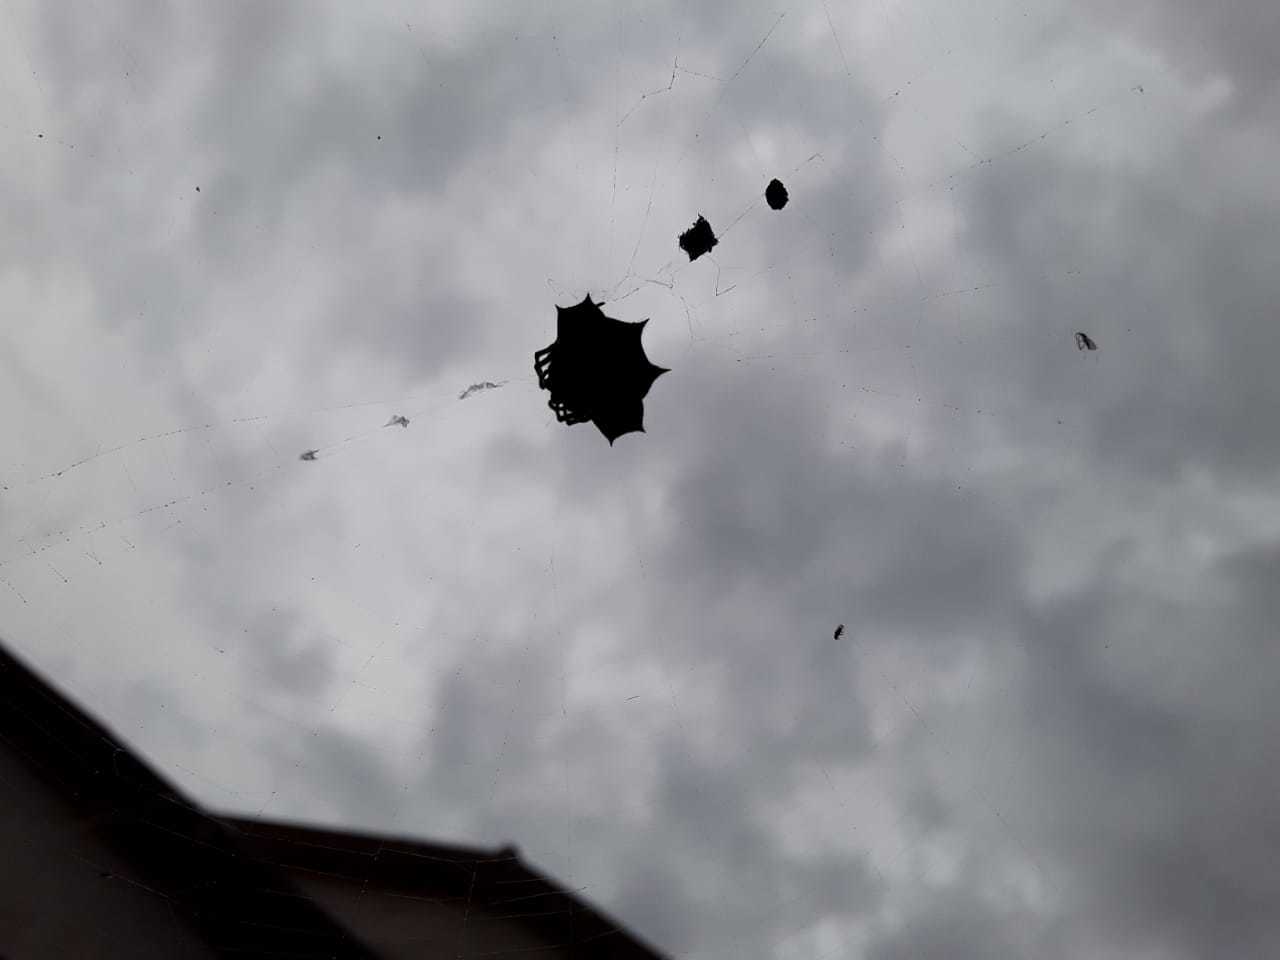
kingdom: Animalia
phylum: Arthropoda
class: Arachnida
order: Araneae
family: Araneidae
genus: Gasteracantha
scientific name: Gasteracantha cancriformis
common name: Orb weavers
